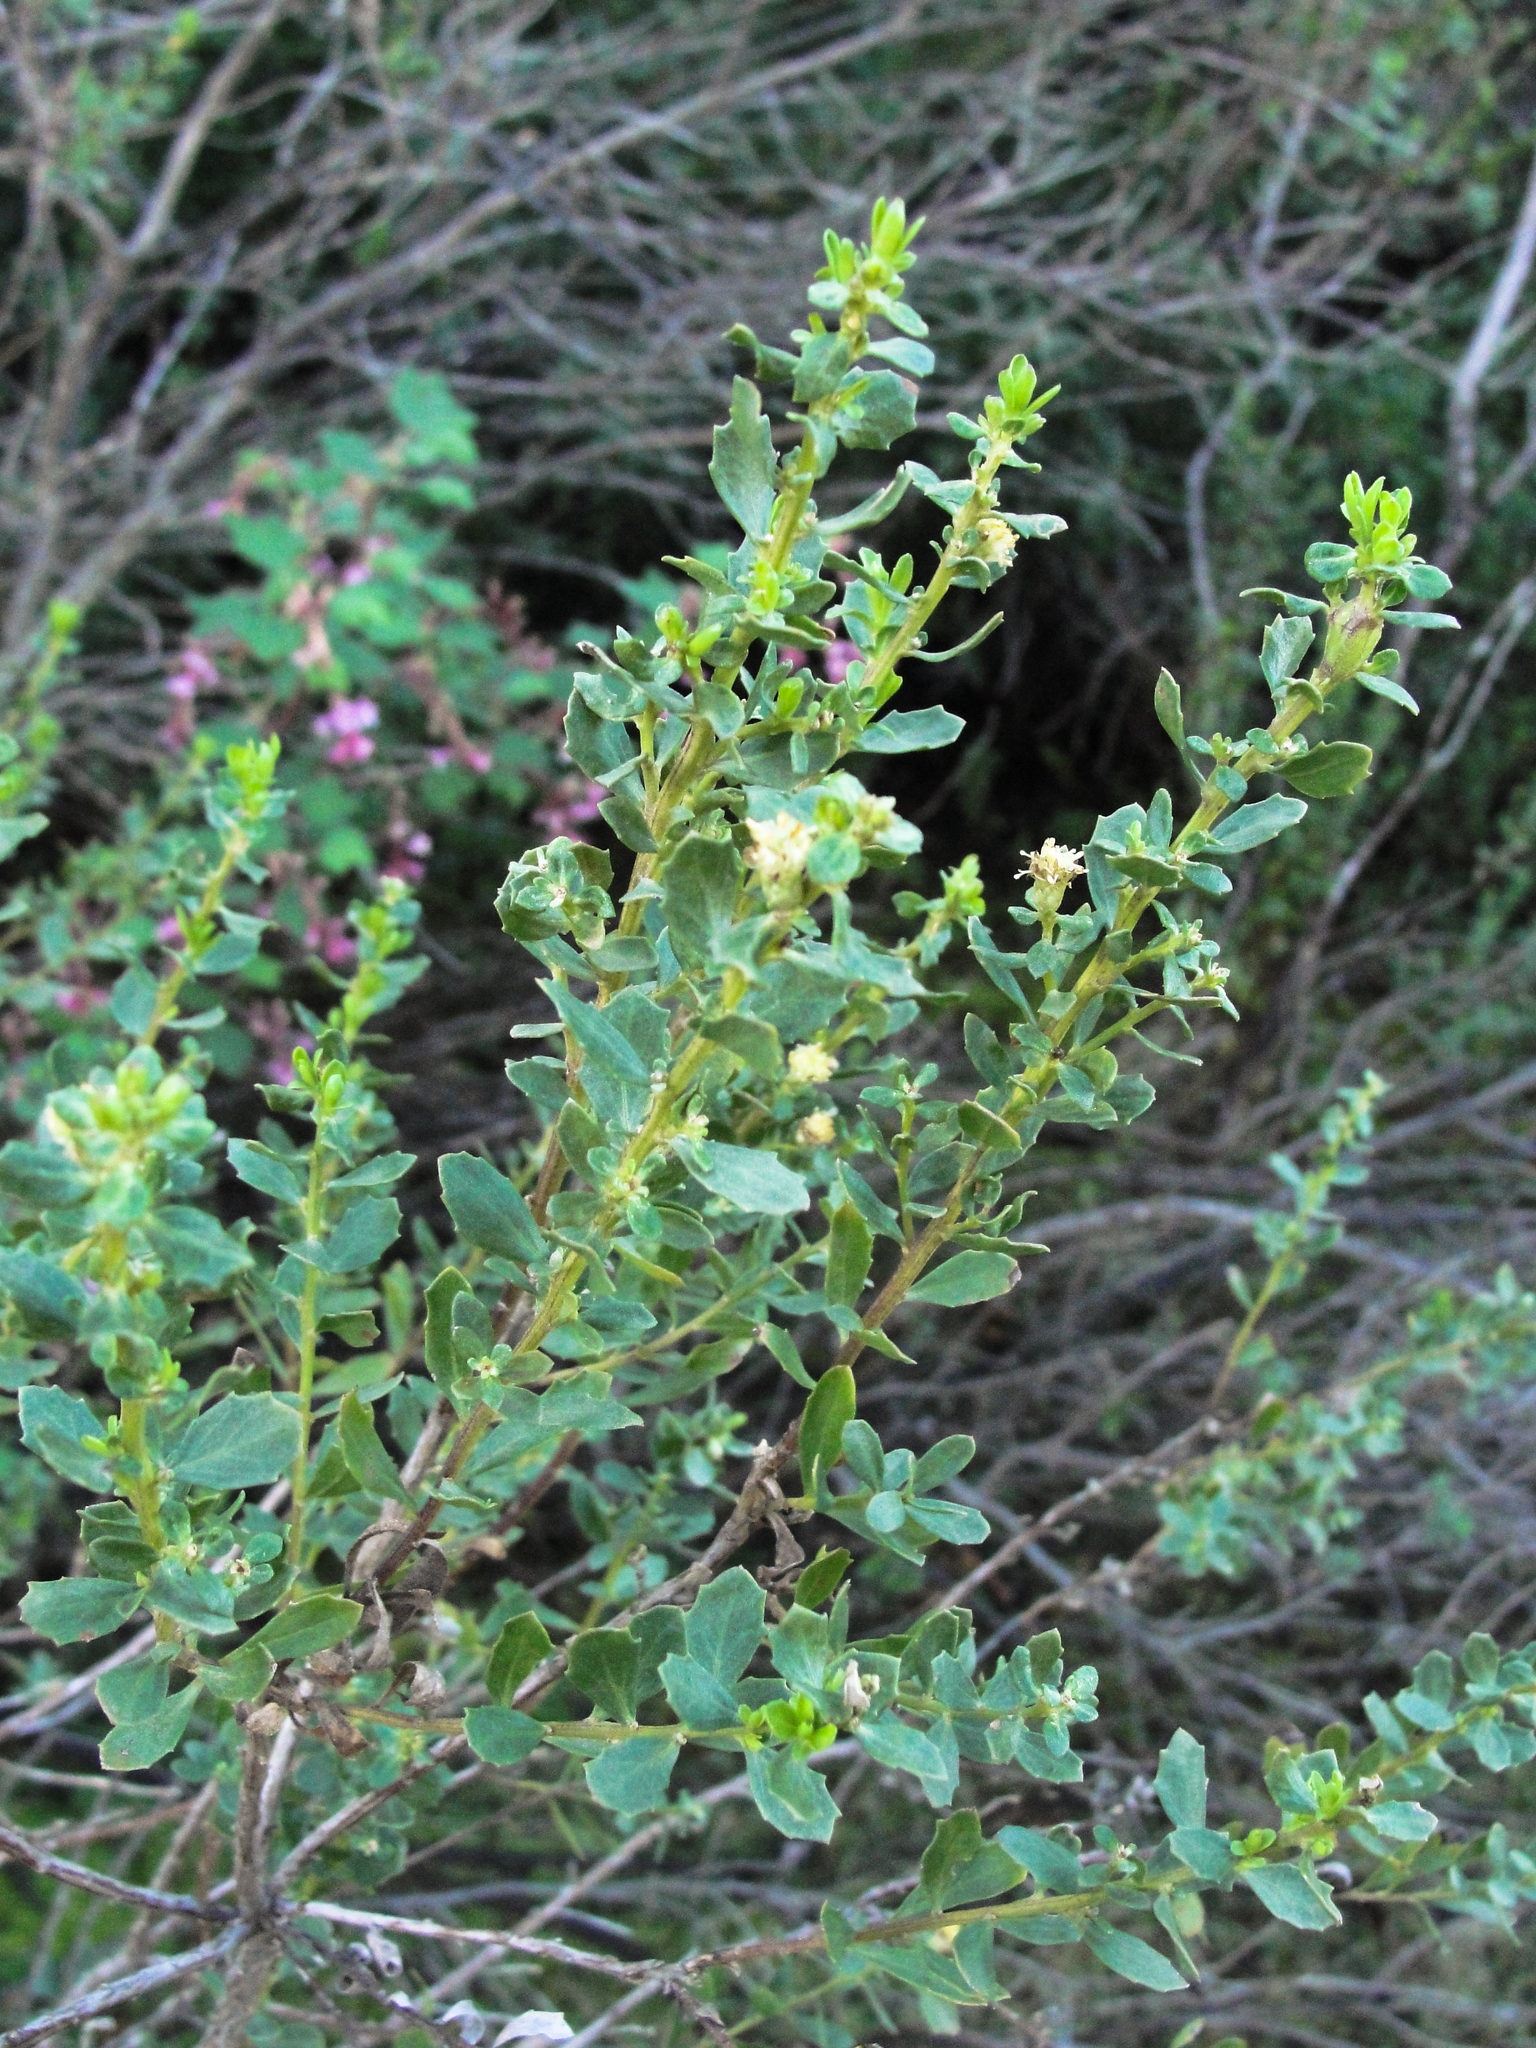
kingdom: Plantae
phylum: Tracheophyta
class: Magnoliopsida
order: Asterales
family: Asteraceae
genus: Baccharis
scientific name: Baccharis pilularis
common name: Coyotebrush
